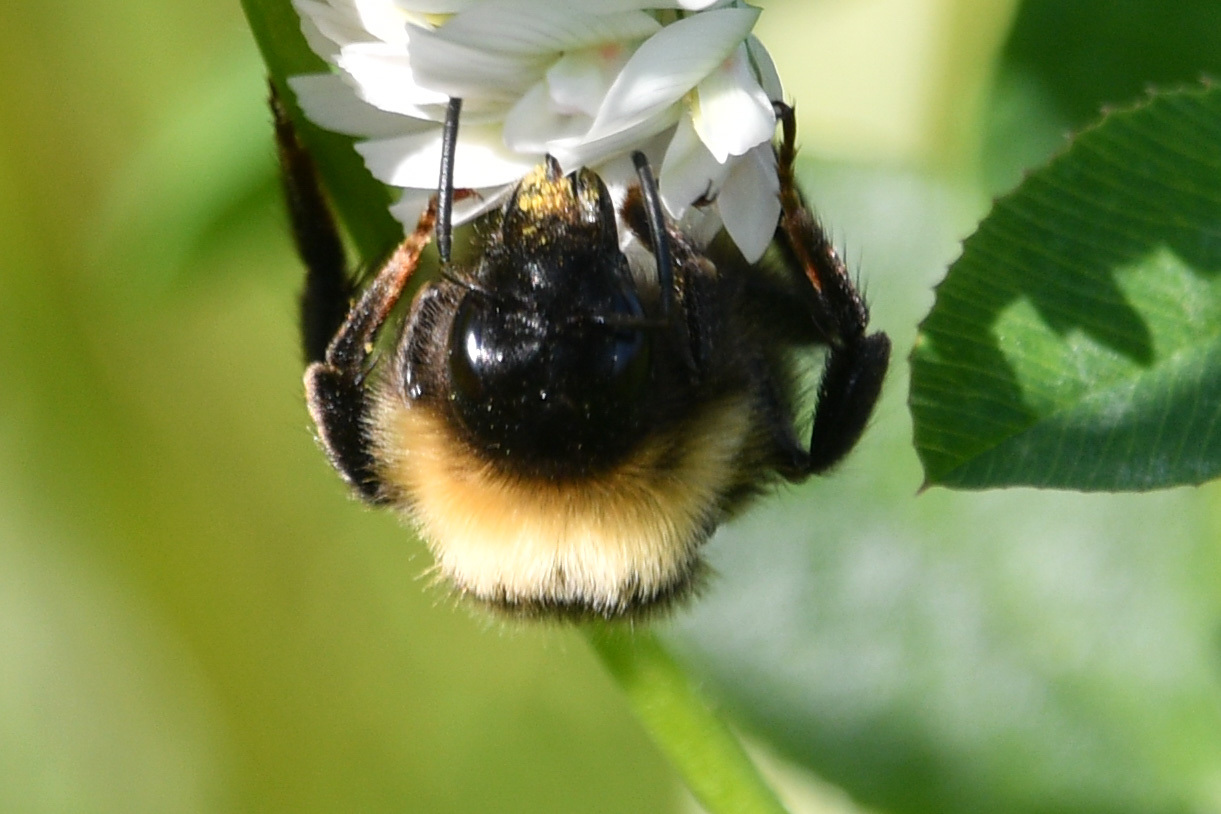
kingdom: Animalia
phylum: Arthropoda
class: Insecta
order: Hymenoptera
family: Apidae
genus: Bombus
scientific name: Bombus ashtoni
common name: Ashton's cuckoo bumble bee
